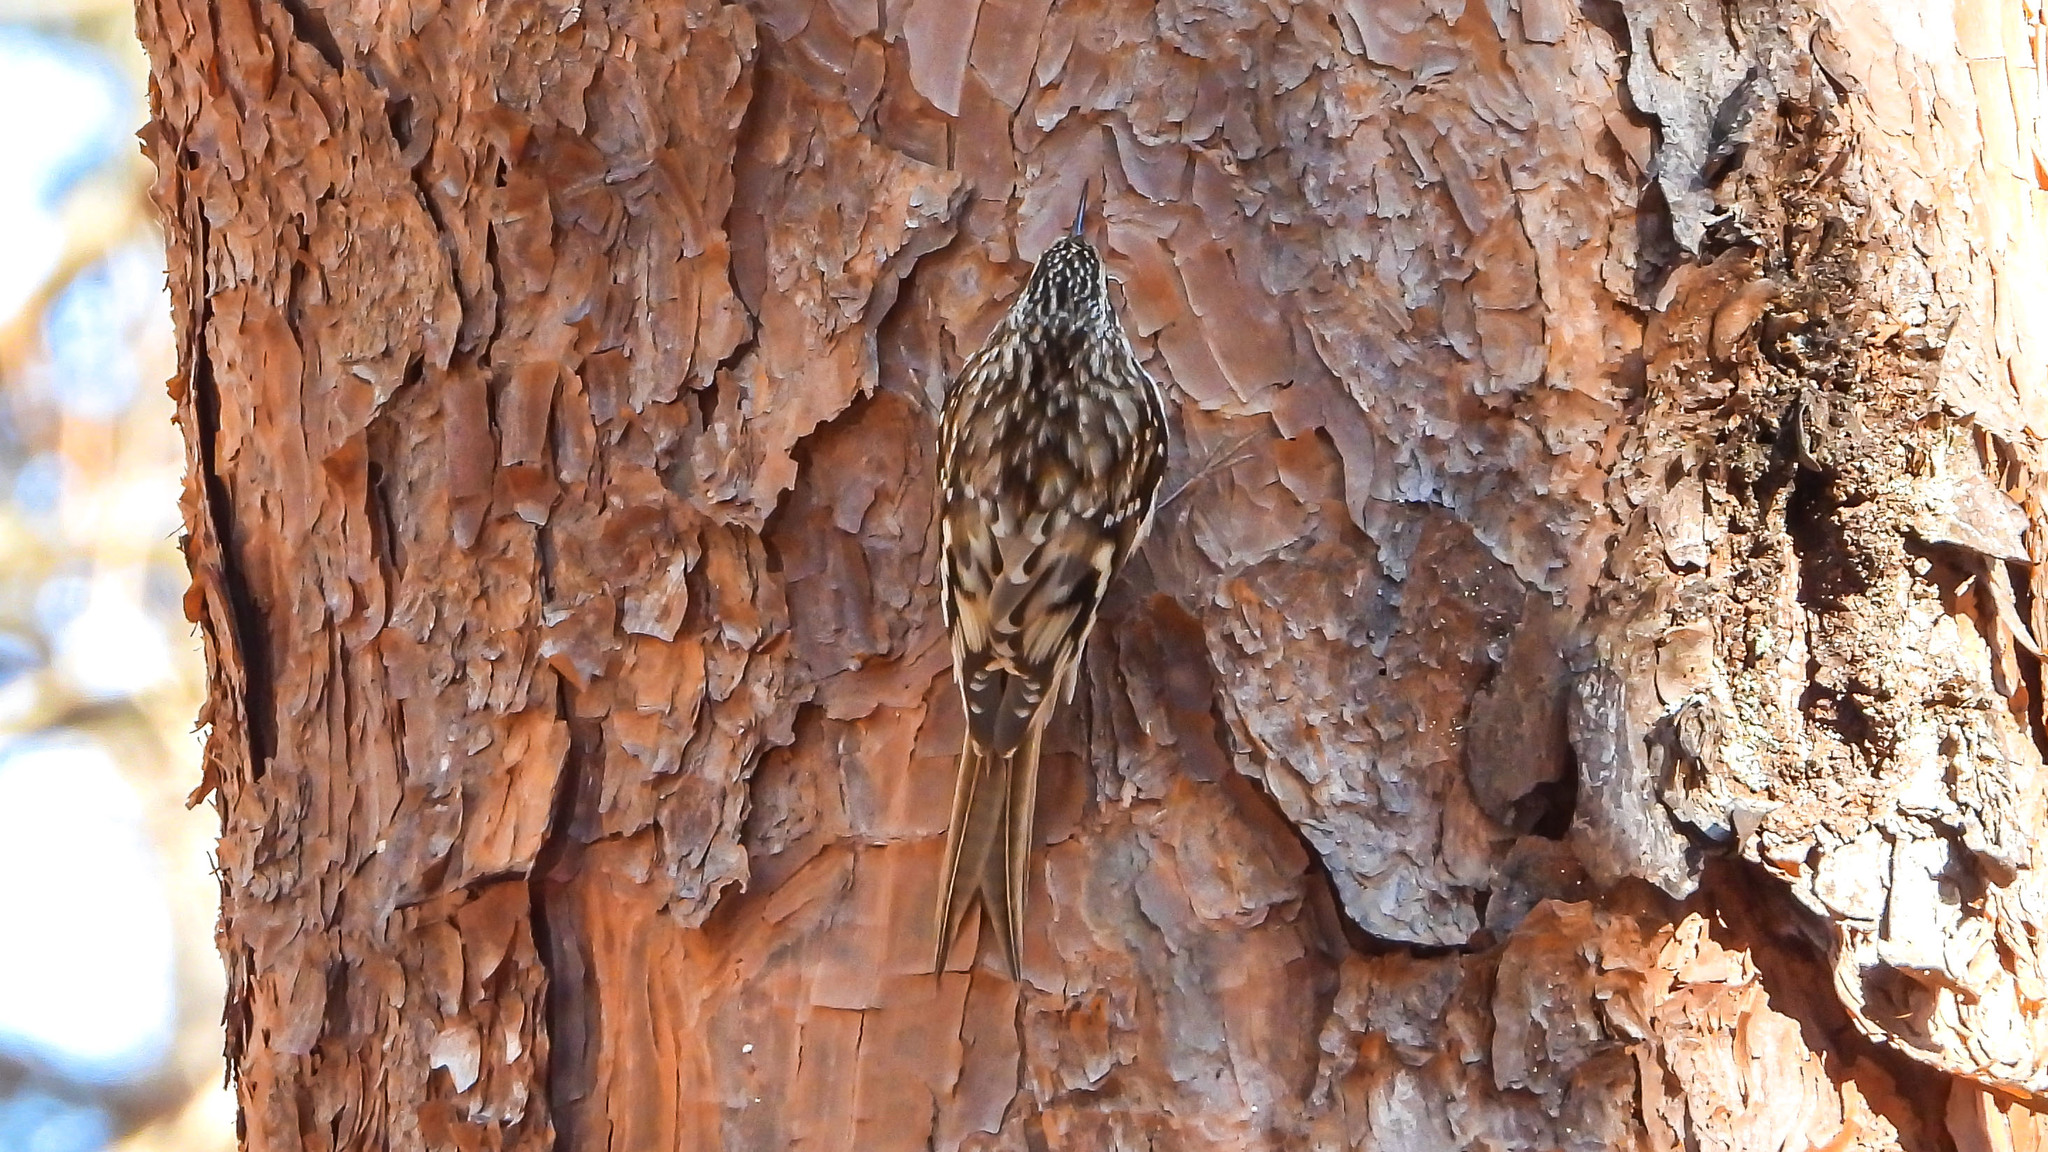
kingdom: Animalia
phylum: Chordata
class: Aves
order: Passeriformes
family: Certhiidae
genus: Certhia
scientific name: Certhia americana
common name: Brown creeper
